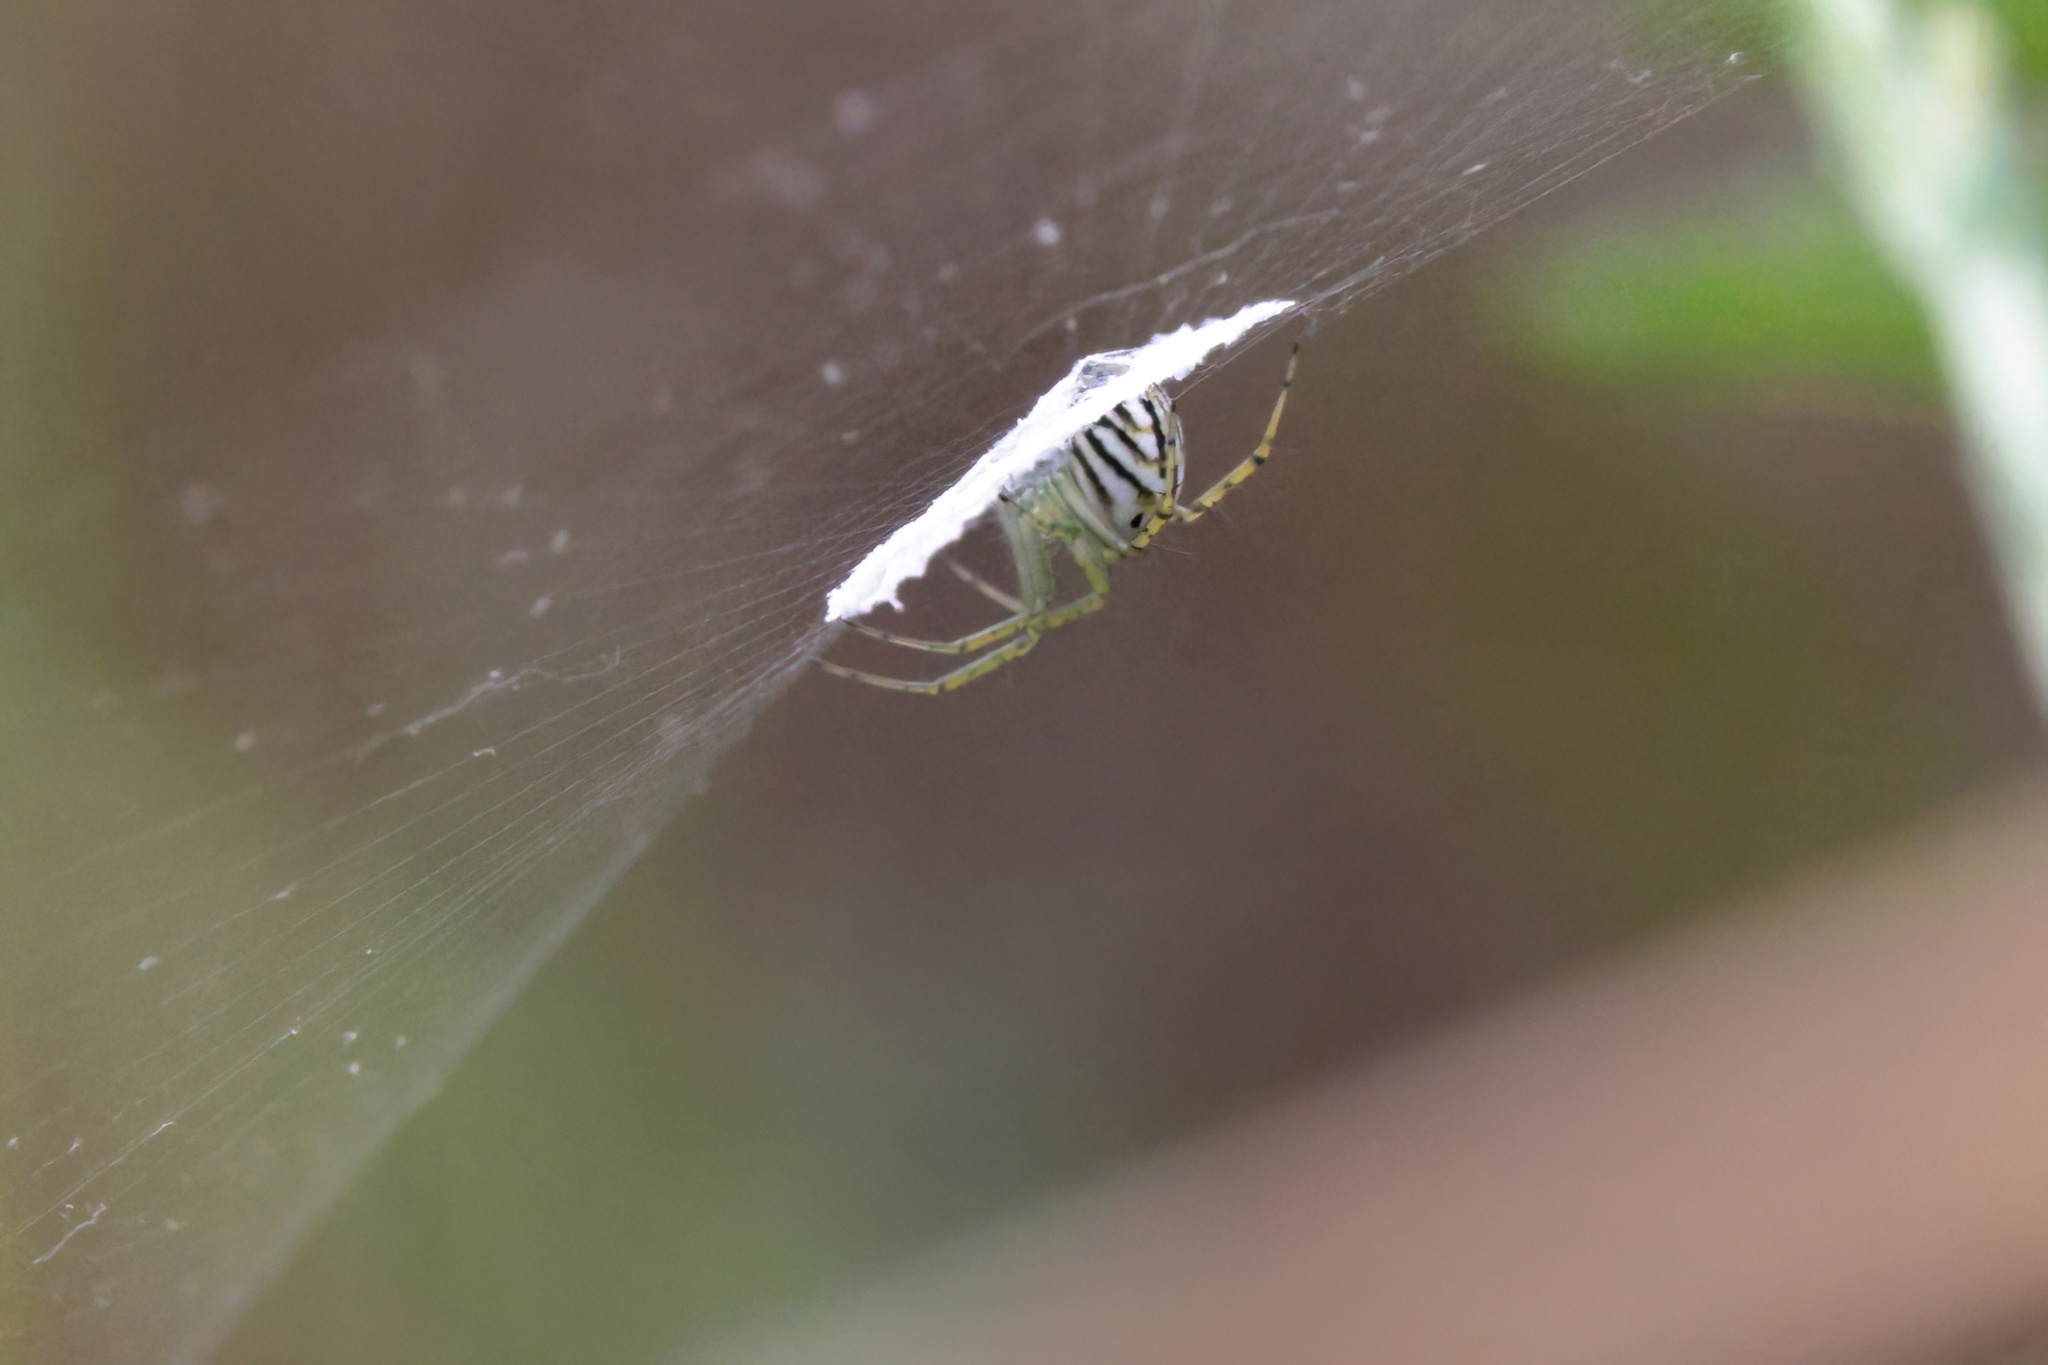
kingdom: Animalia
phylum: Arthropoda
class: Arachnida
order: Araneae
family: Araneidae
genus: Mangora
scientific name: Mangora gibberosa
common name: Lined orbweaver
